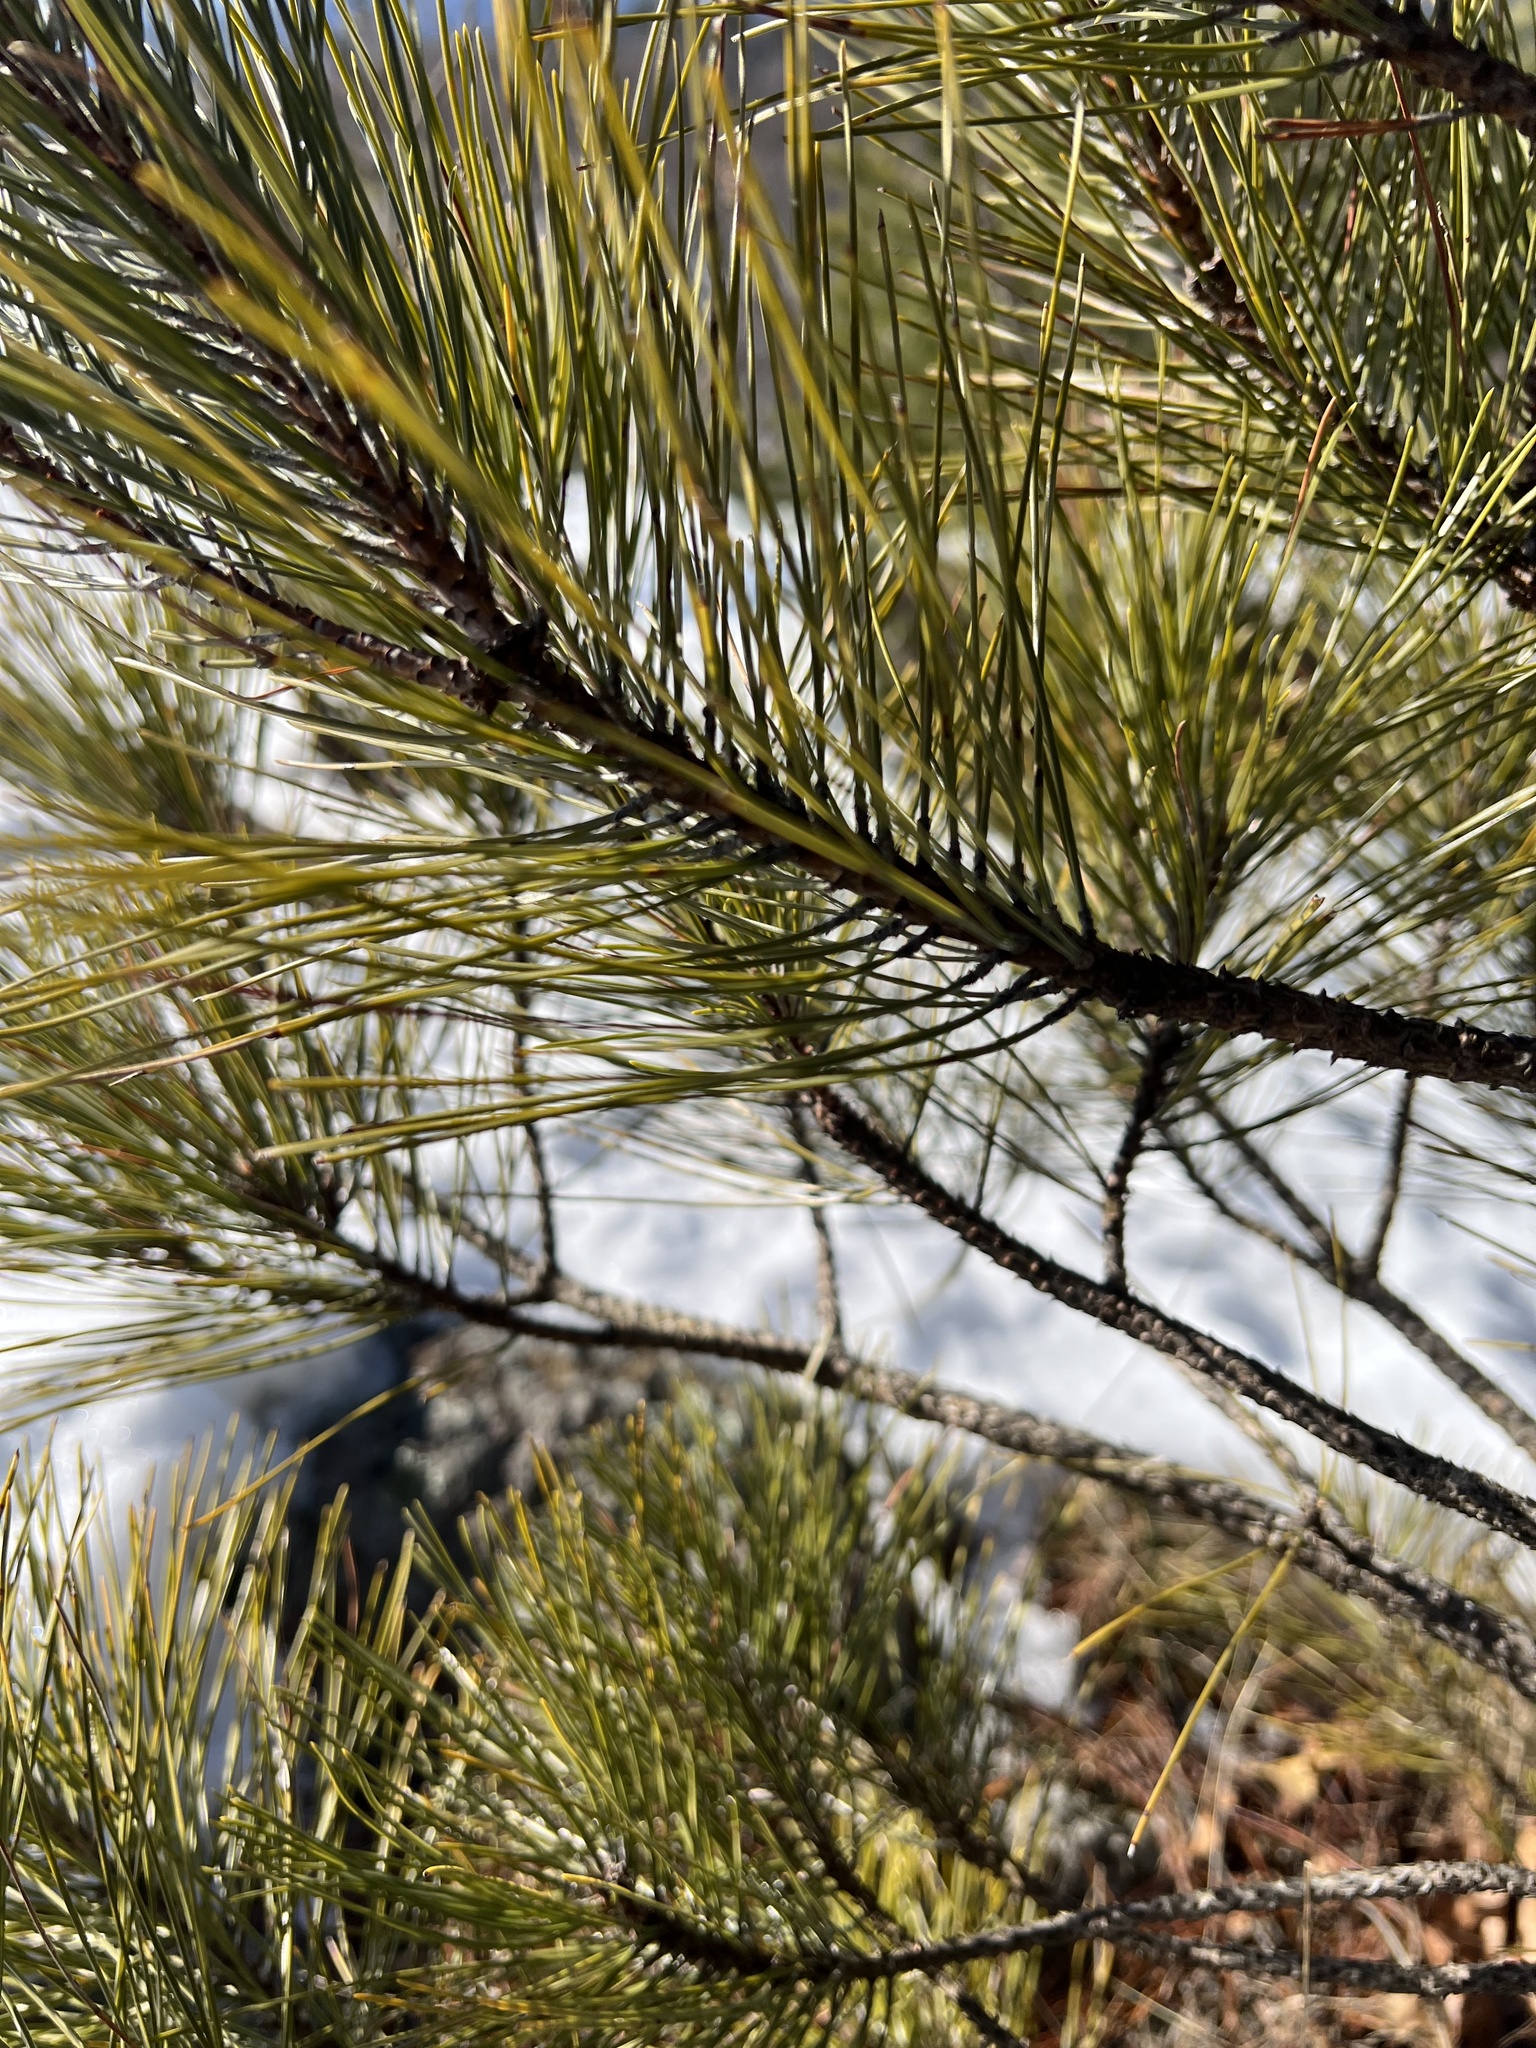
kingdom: Plantae
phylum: Tracheophyta
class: Pinopsida
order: Pinales
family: Pinaceae
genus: Pinus
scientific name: Pinus resinosa
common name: Norway pine
